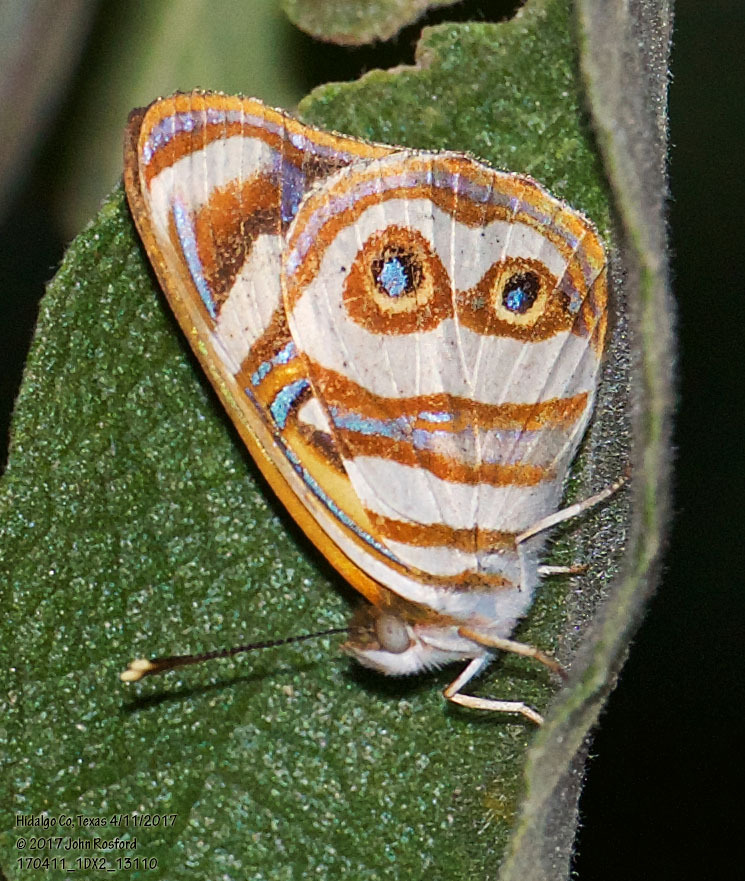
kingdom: Animalia
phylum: Arthropoda
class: Insecta
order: Lepidoptera
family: Nymphalidae
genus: Dynamine
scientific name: Dynamine dyonis
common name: Blue-eyed sailor
